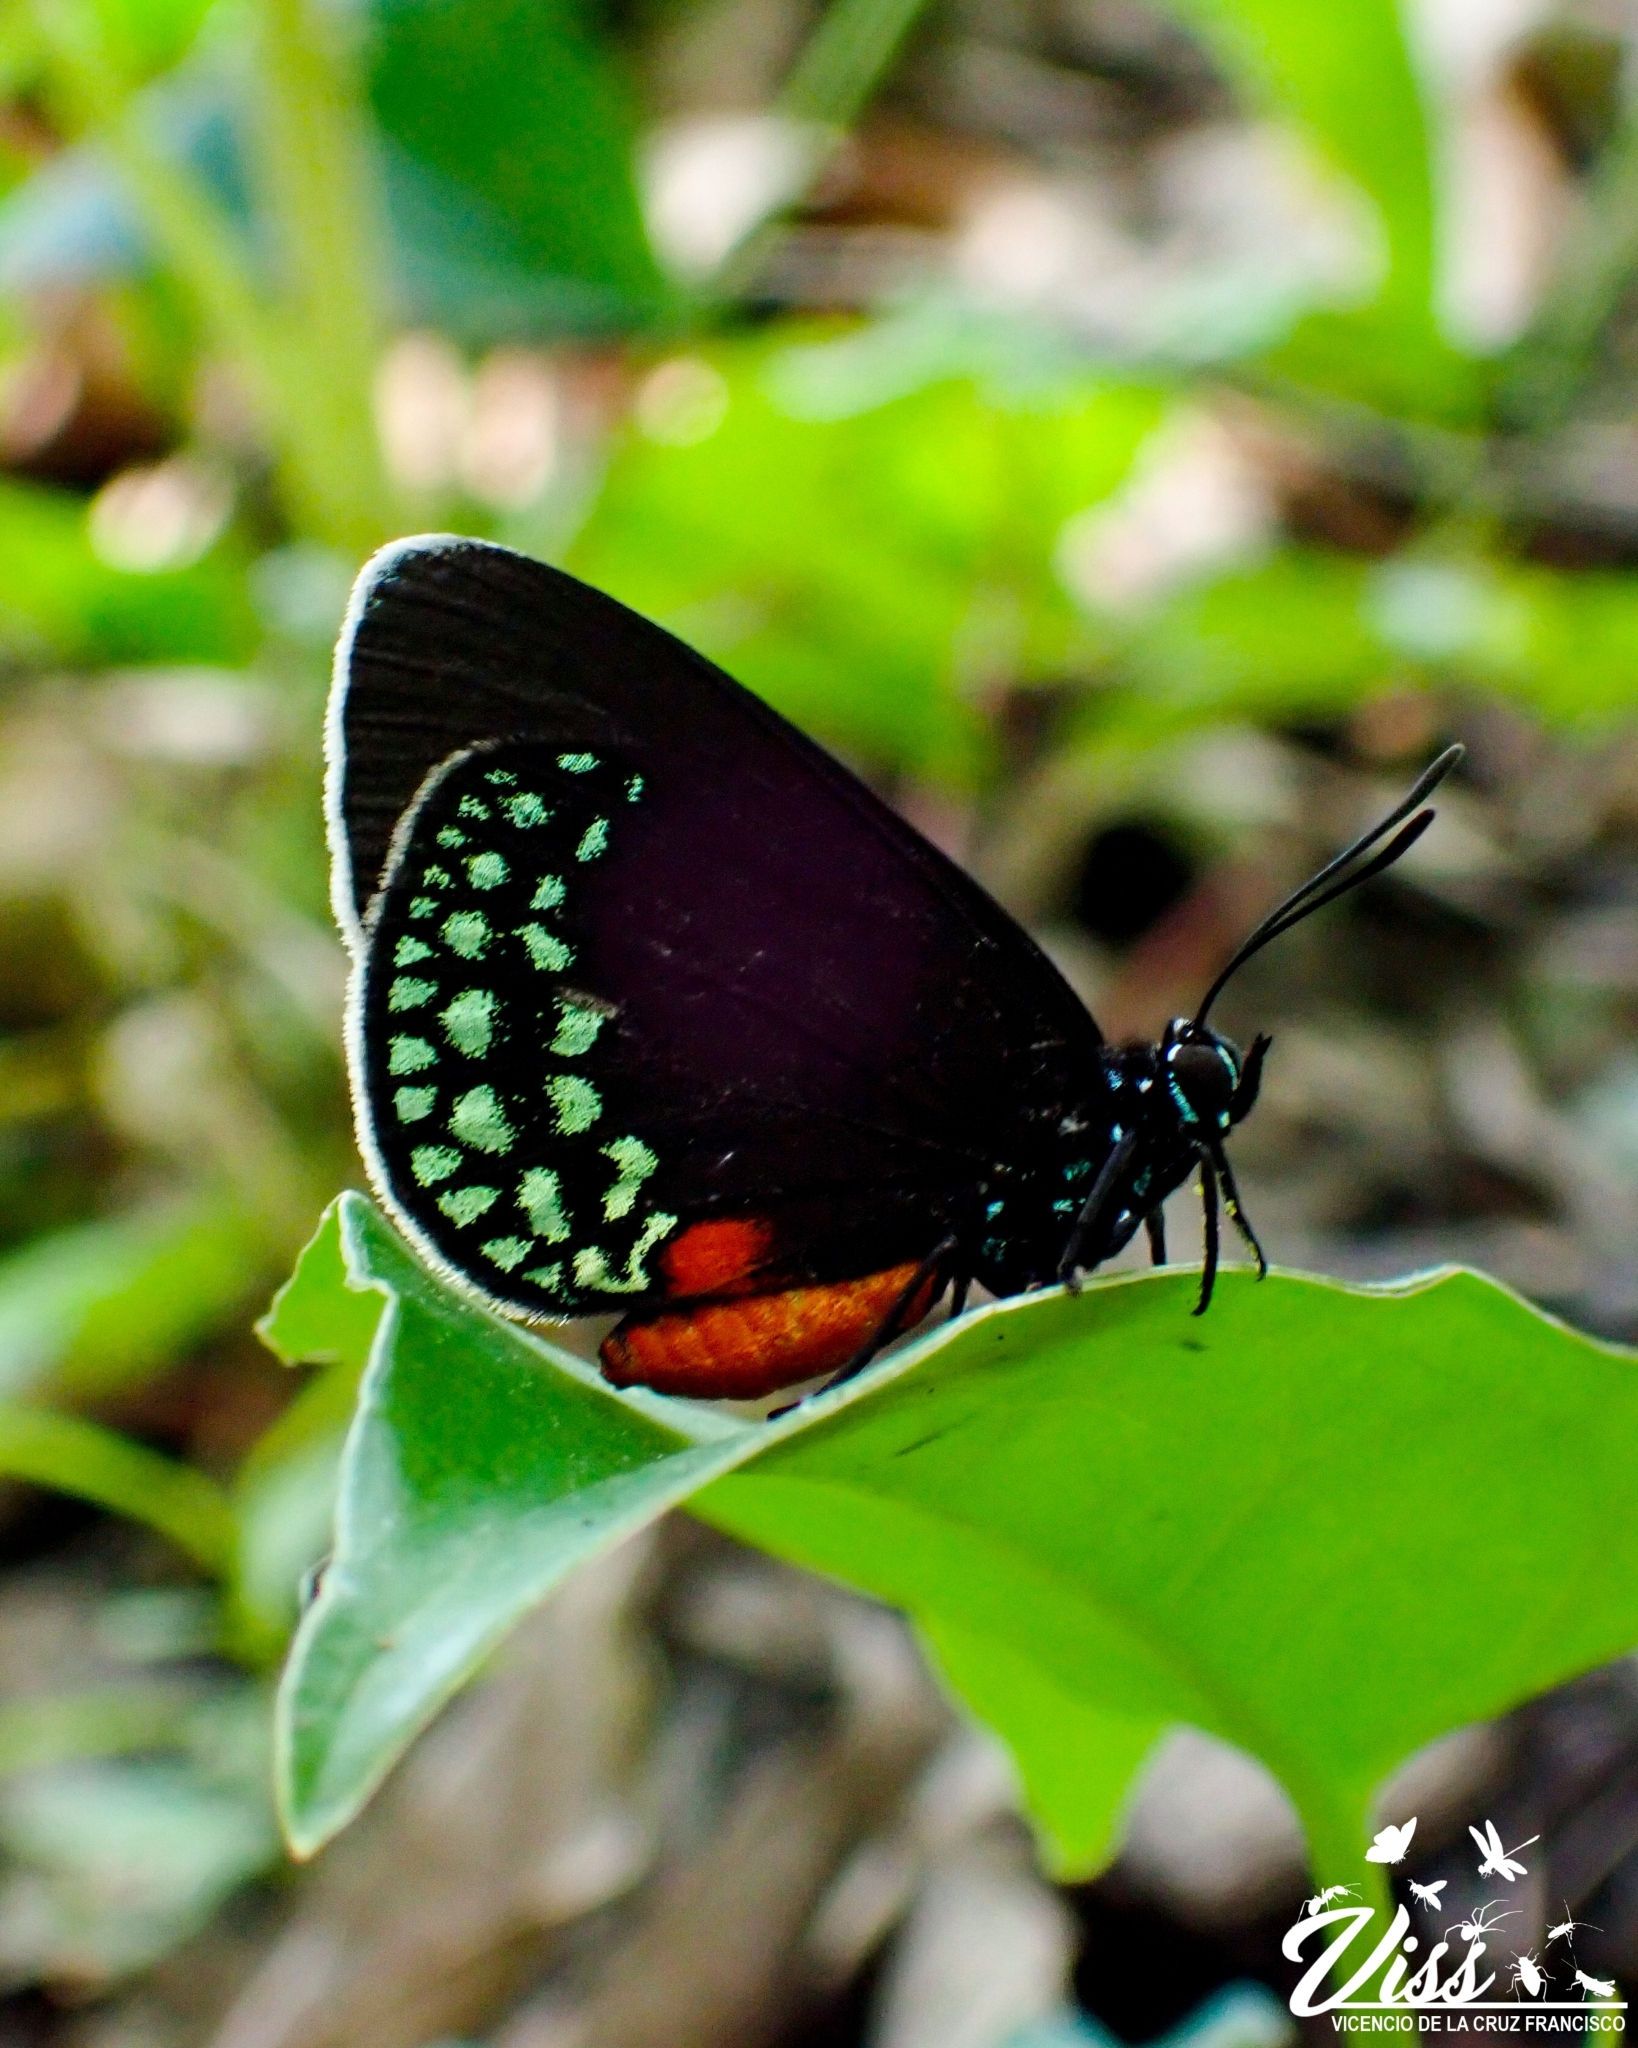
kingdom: Animalia
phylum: Arthropoda
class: Insecta
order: Lepidoptera
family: Lycaenidae
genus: Eumaeus
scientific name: Eumaeus toxea
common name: Mexican cycadian
